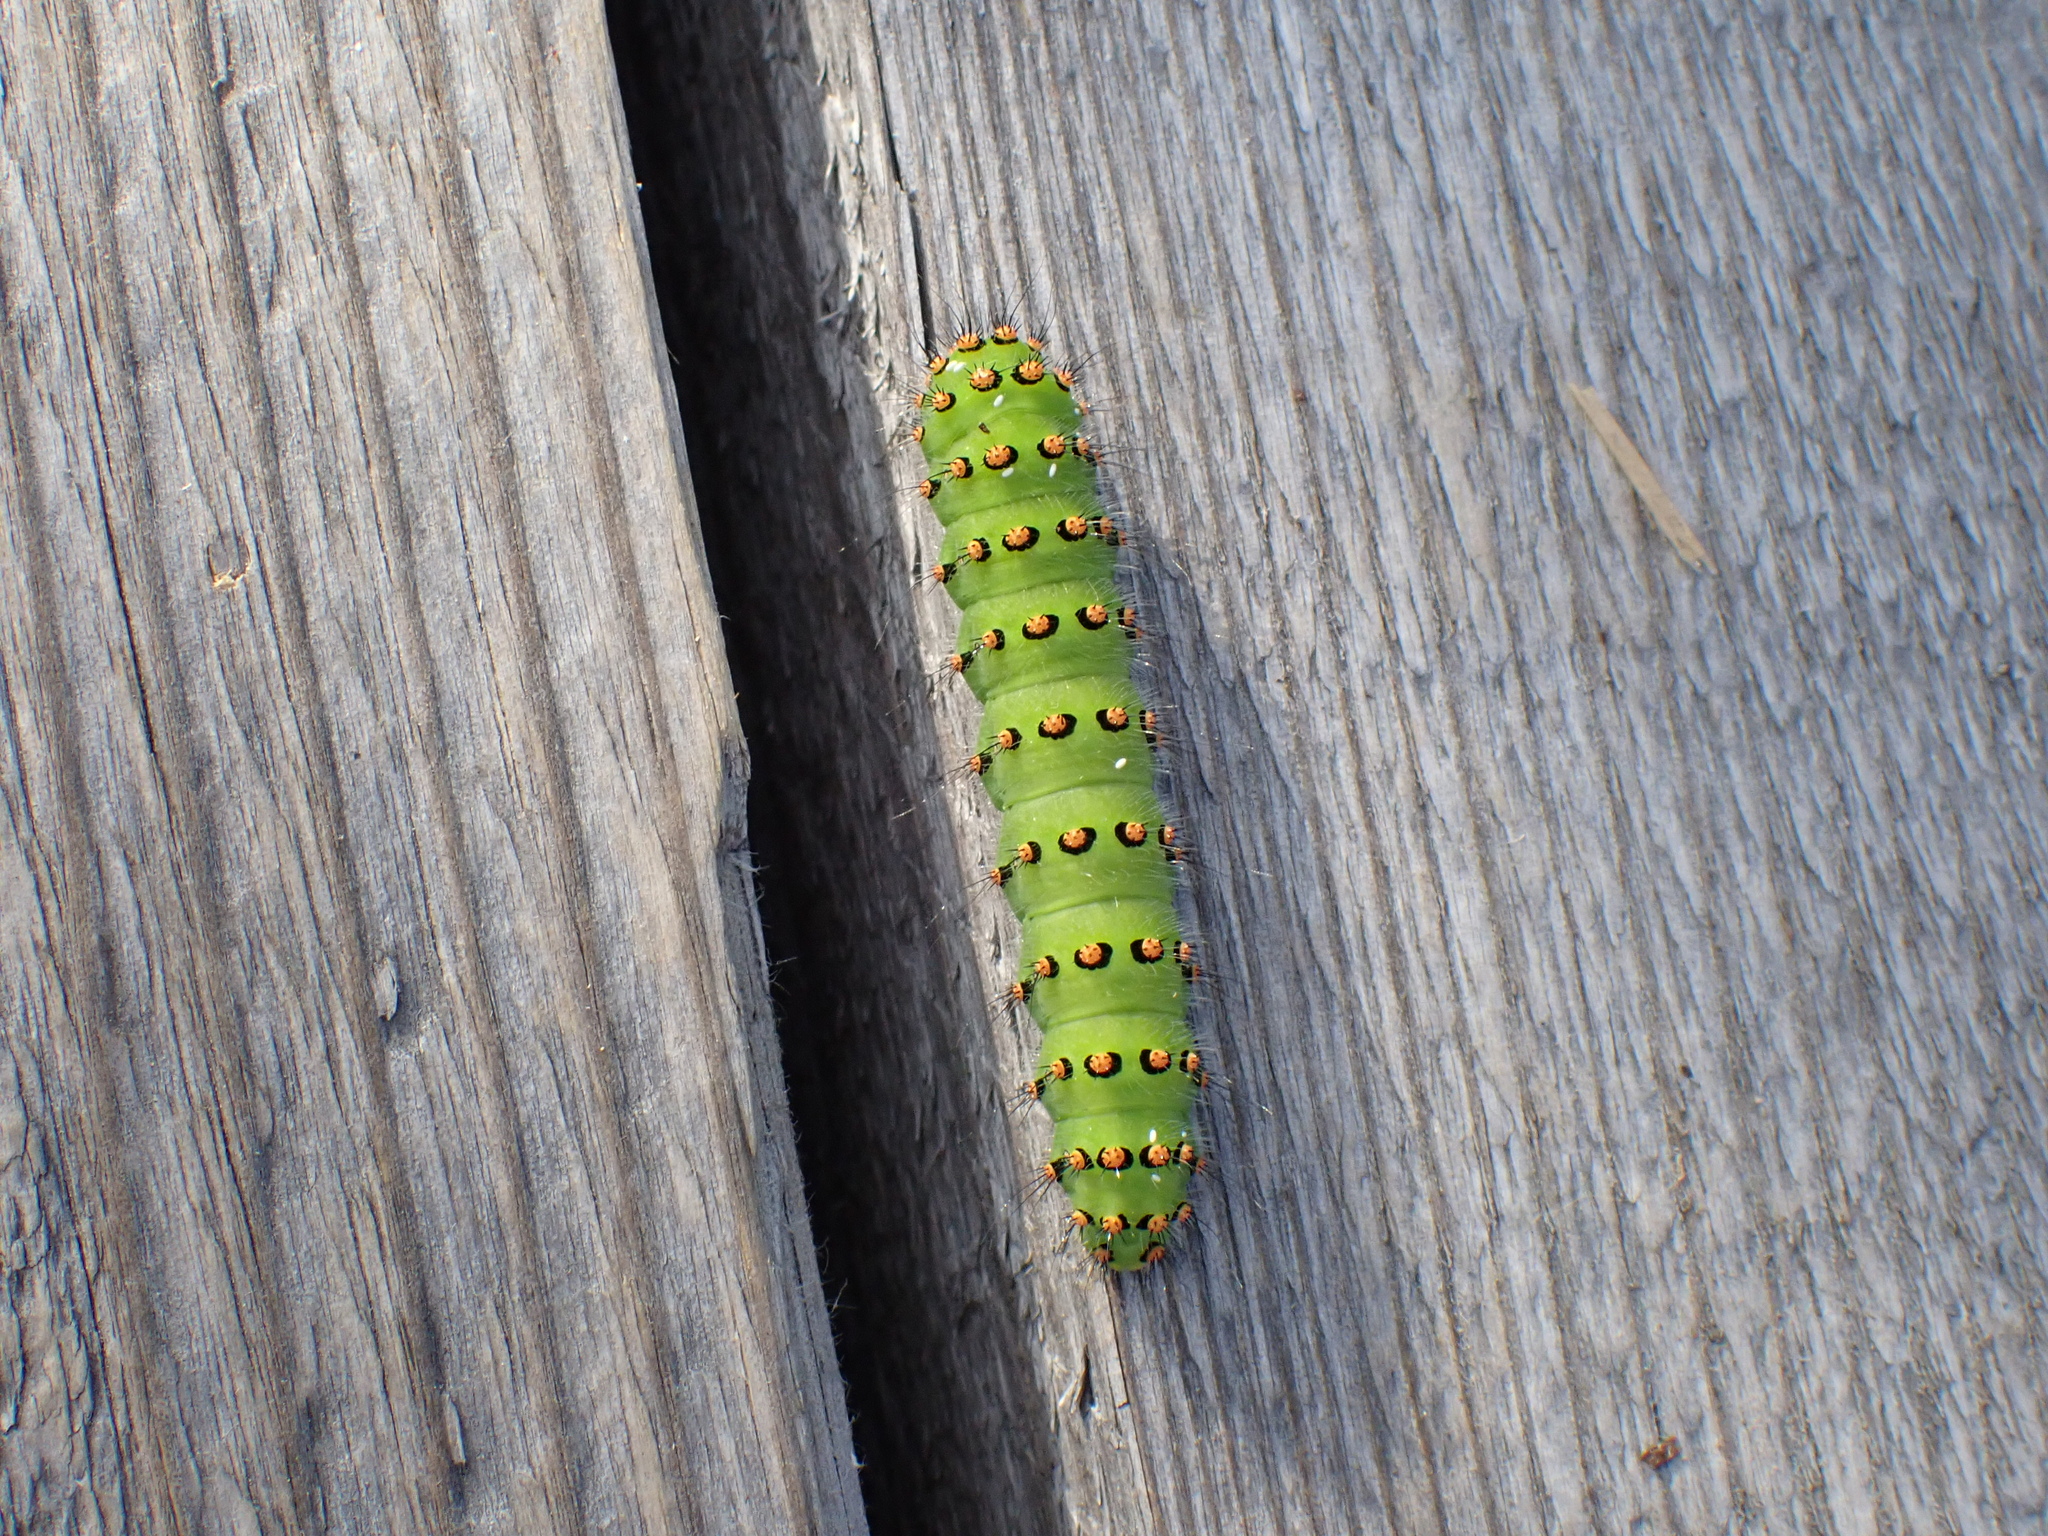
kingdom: Animalia
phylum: Arthropoda
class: Insecta
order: Lepidoptera
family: Saturniidae
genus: Saturnia
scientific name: Saturnia pavonia
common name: Emperor moth
